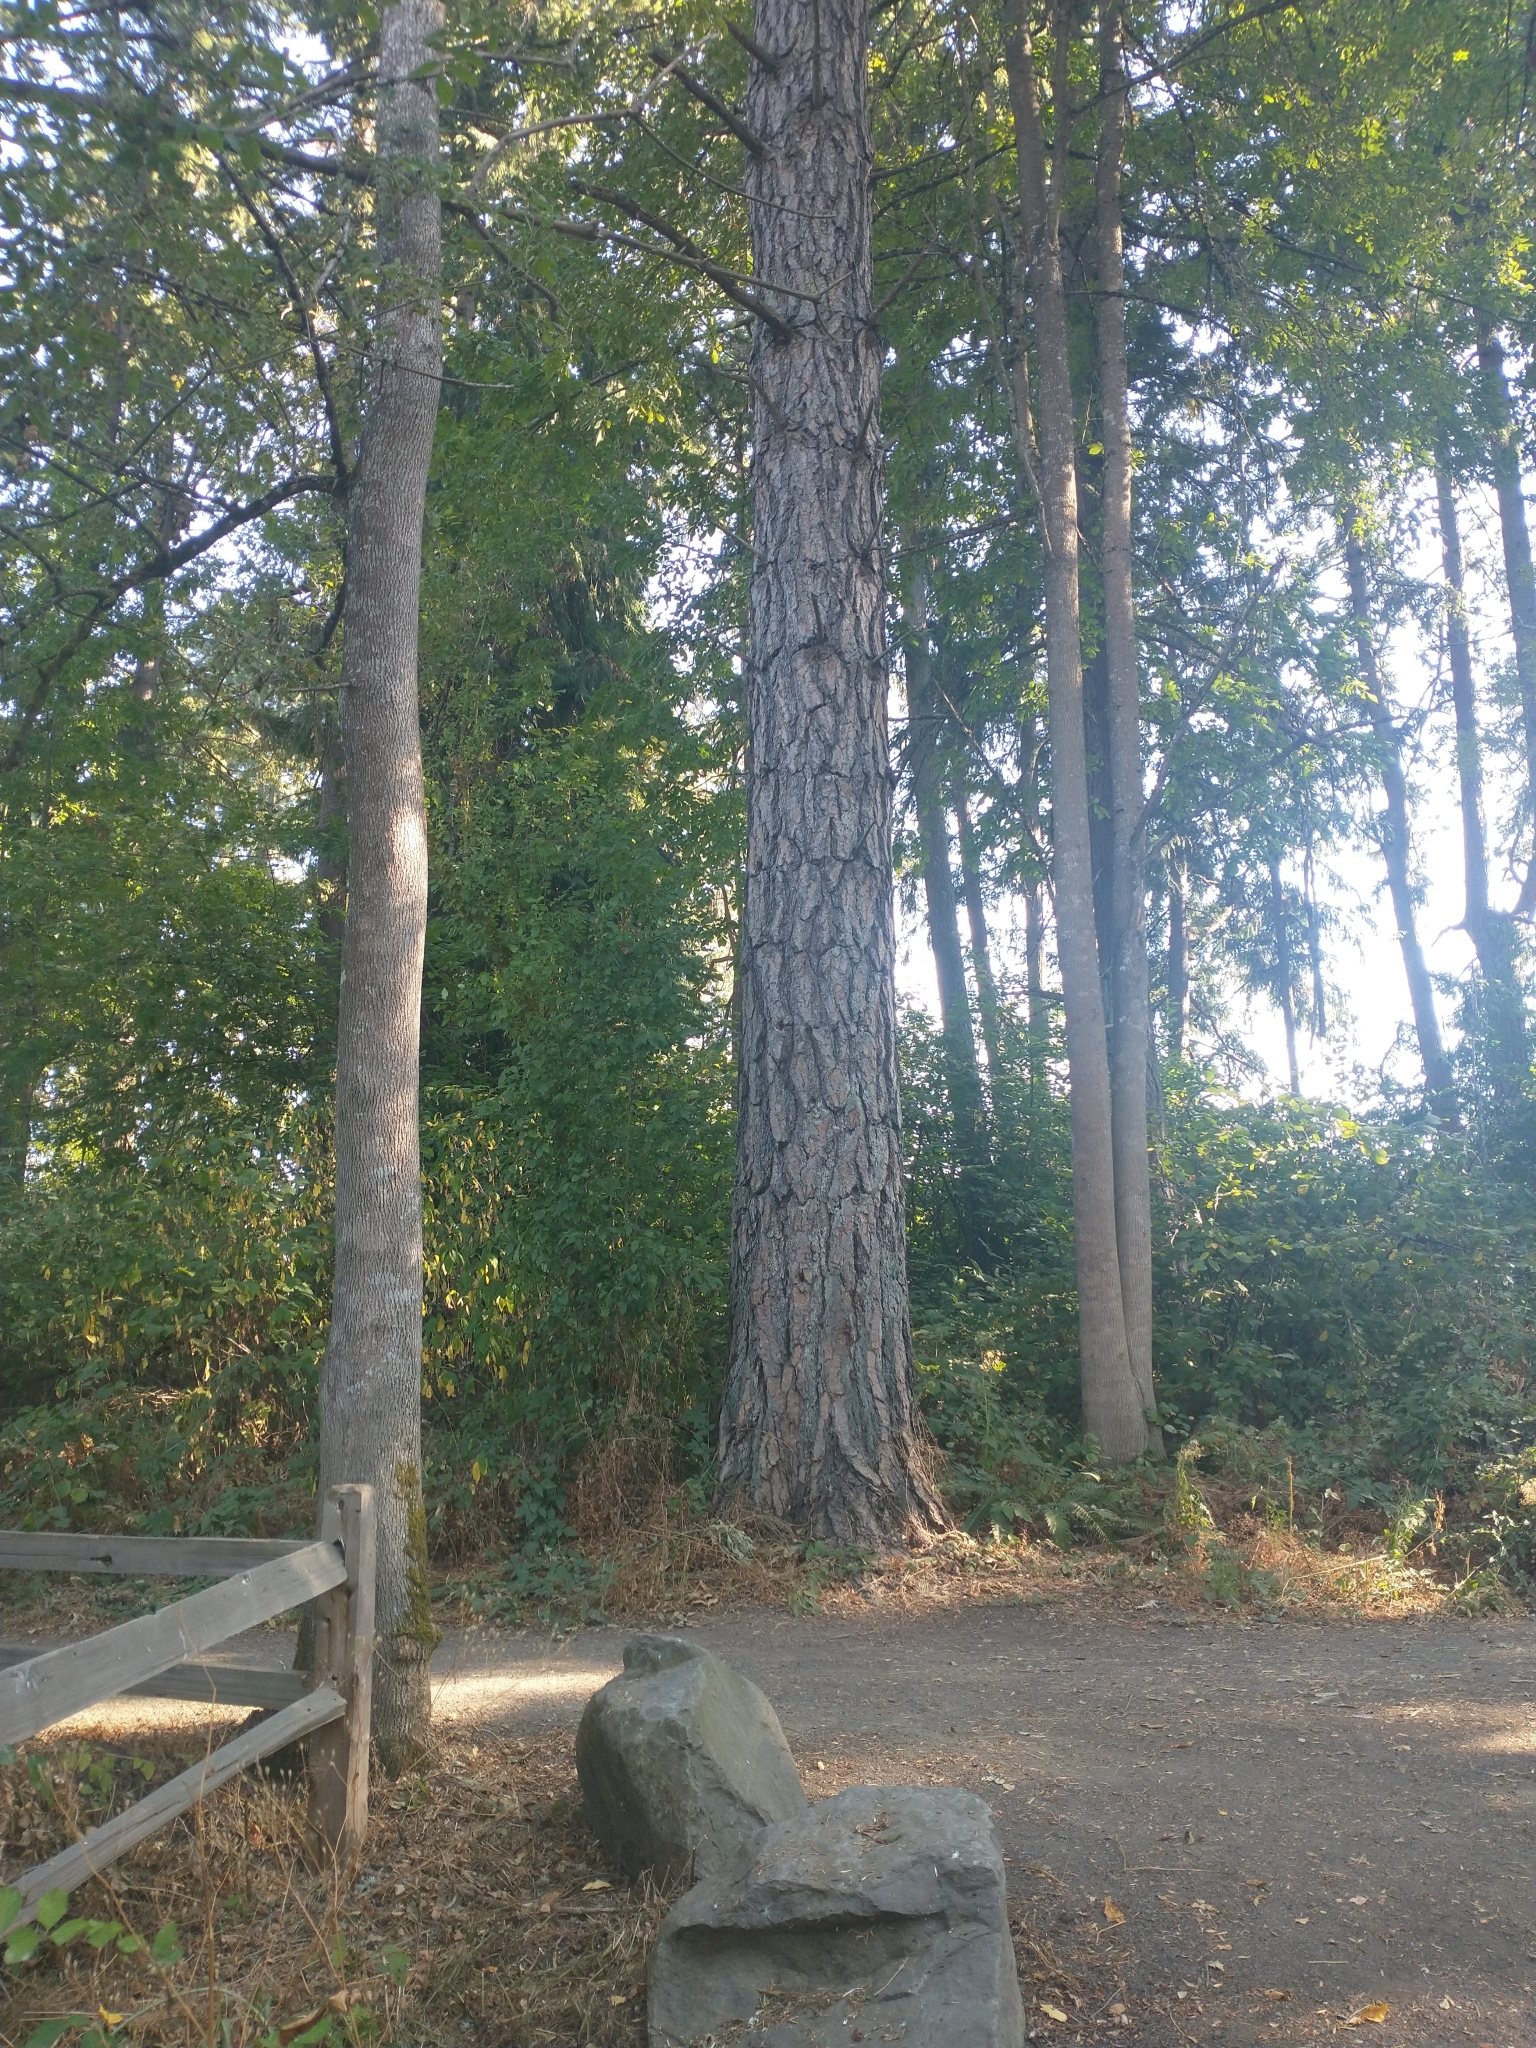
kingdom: Plantae
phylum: Tracheophyta
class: Pinopsida
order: Pinales
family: Pinaceae
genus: Pinus
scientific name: Pinus ponderosa
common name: Western yellow-pine
